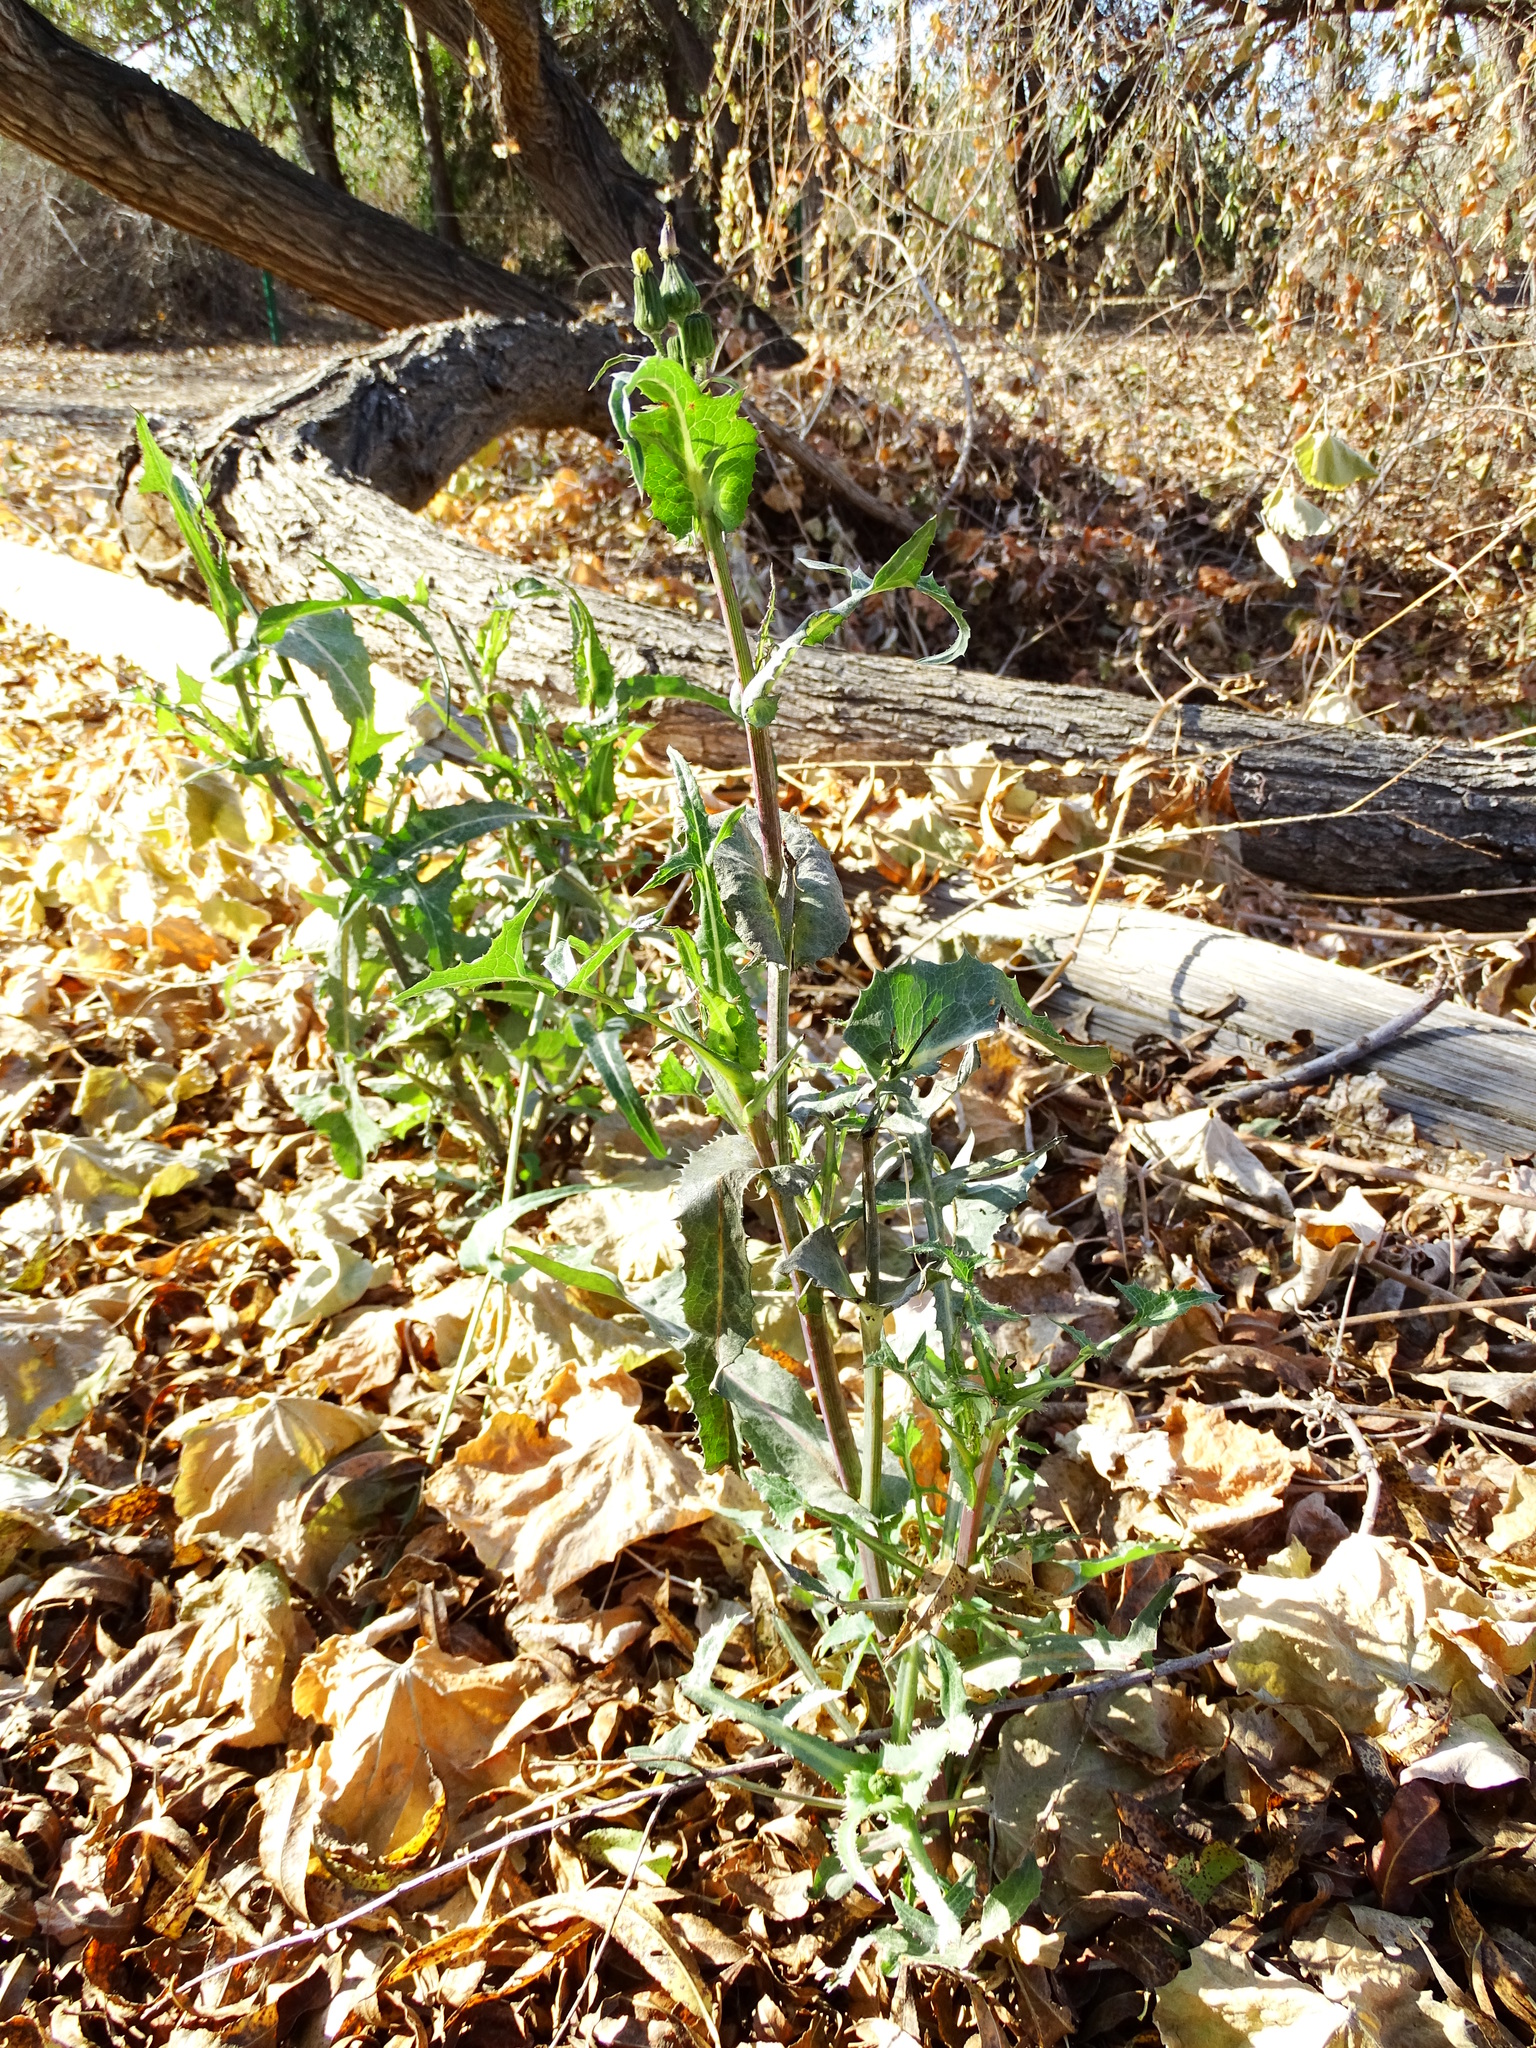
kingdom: Plantae
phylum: Tracheophyta
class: Magnoliopsida
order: Asterales
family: Asteraceae
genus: Sonchus
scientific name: Sonchus oleraceus
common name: Common sowthistle
